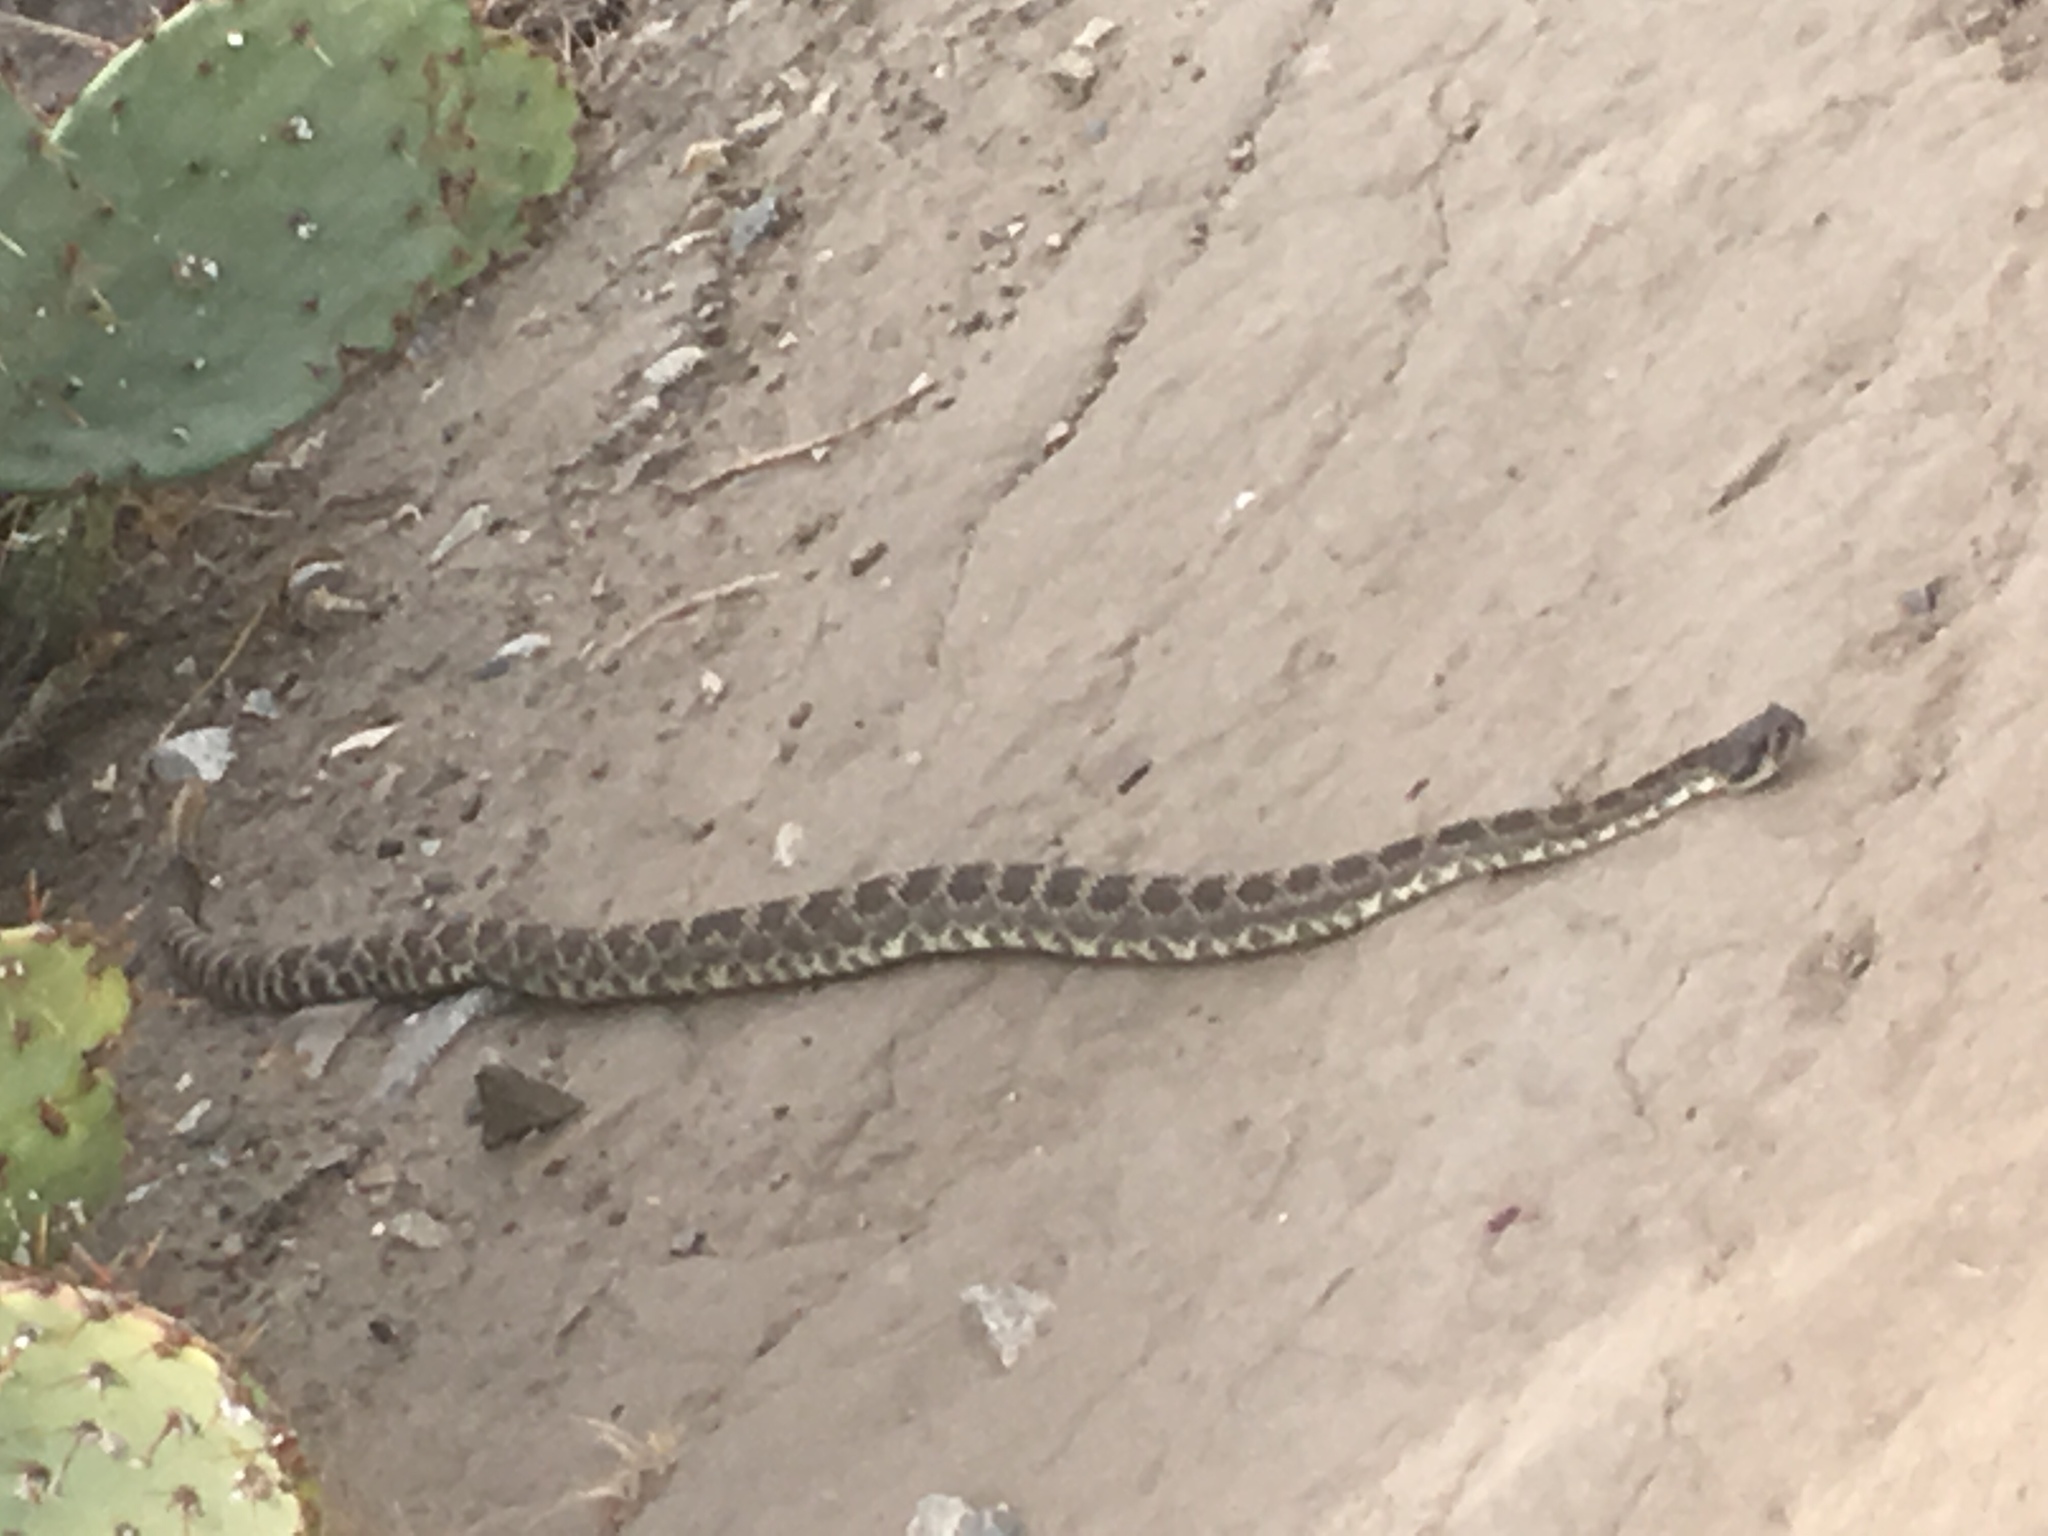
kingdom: Animalia
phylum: Chordata
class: Squamata
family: Viperidae
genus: Crotalus
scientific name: Crotalus oreganus
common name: Abyssus
